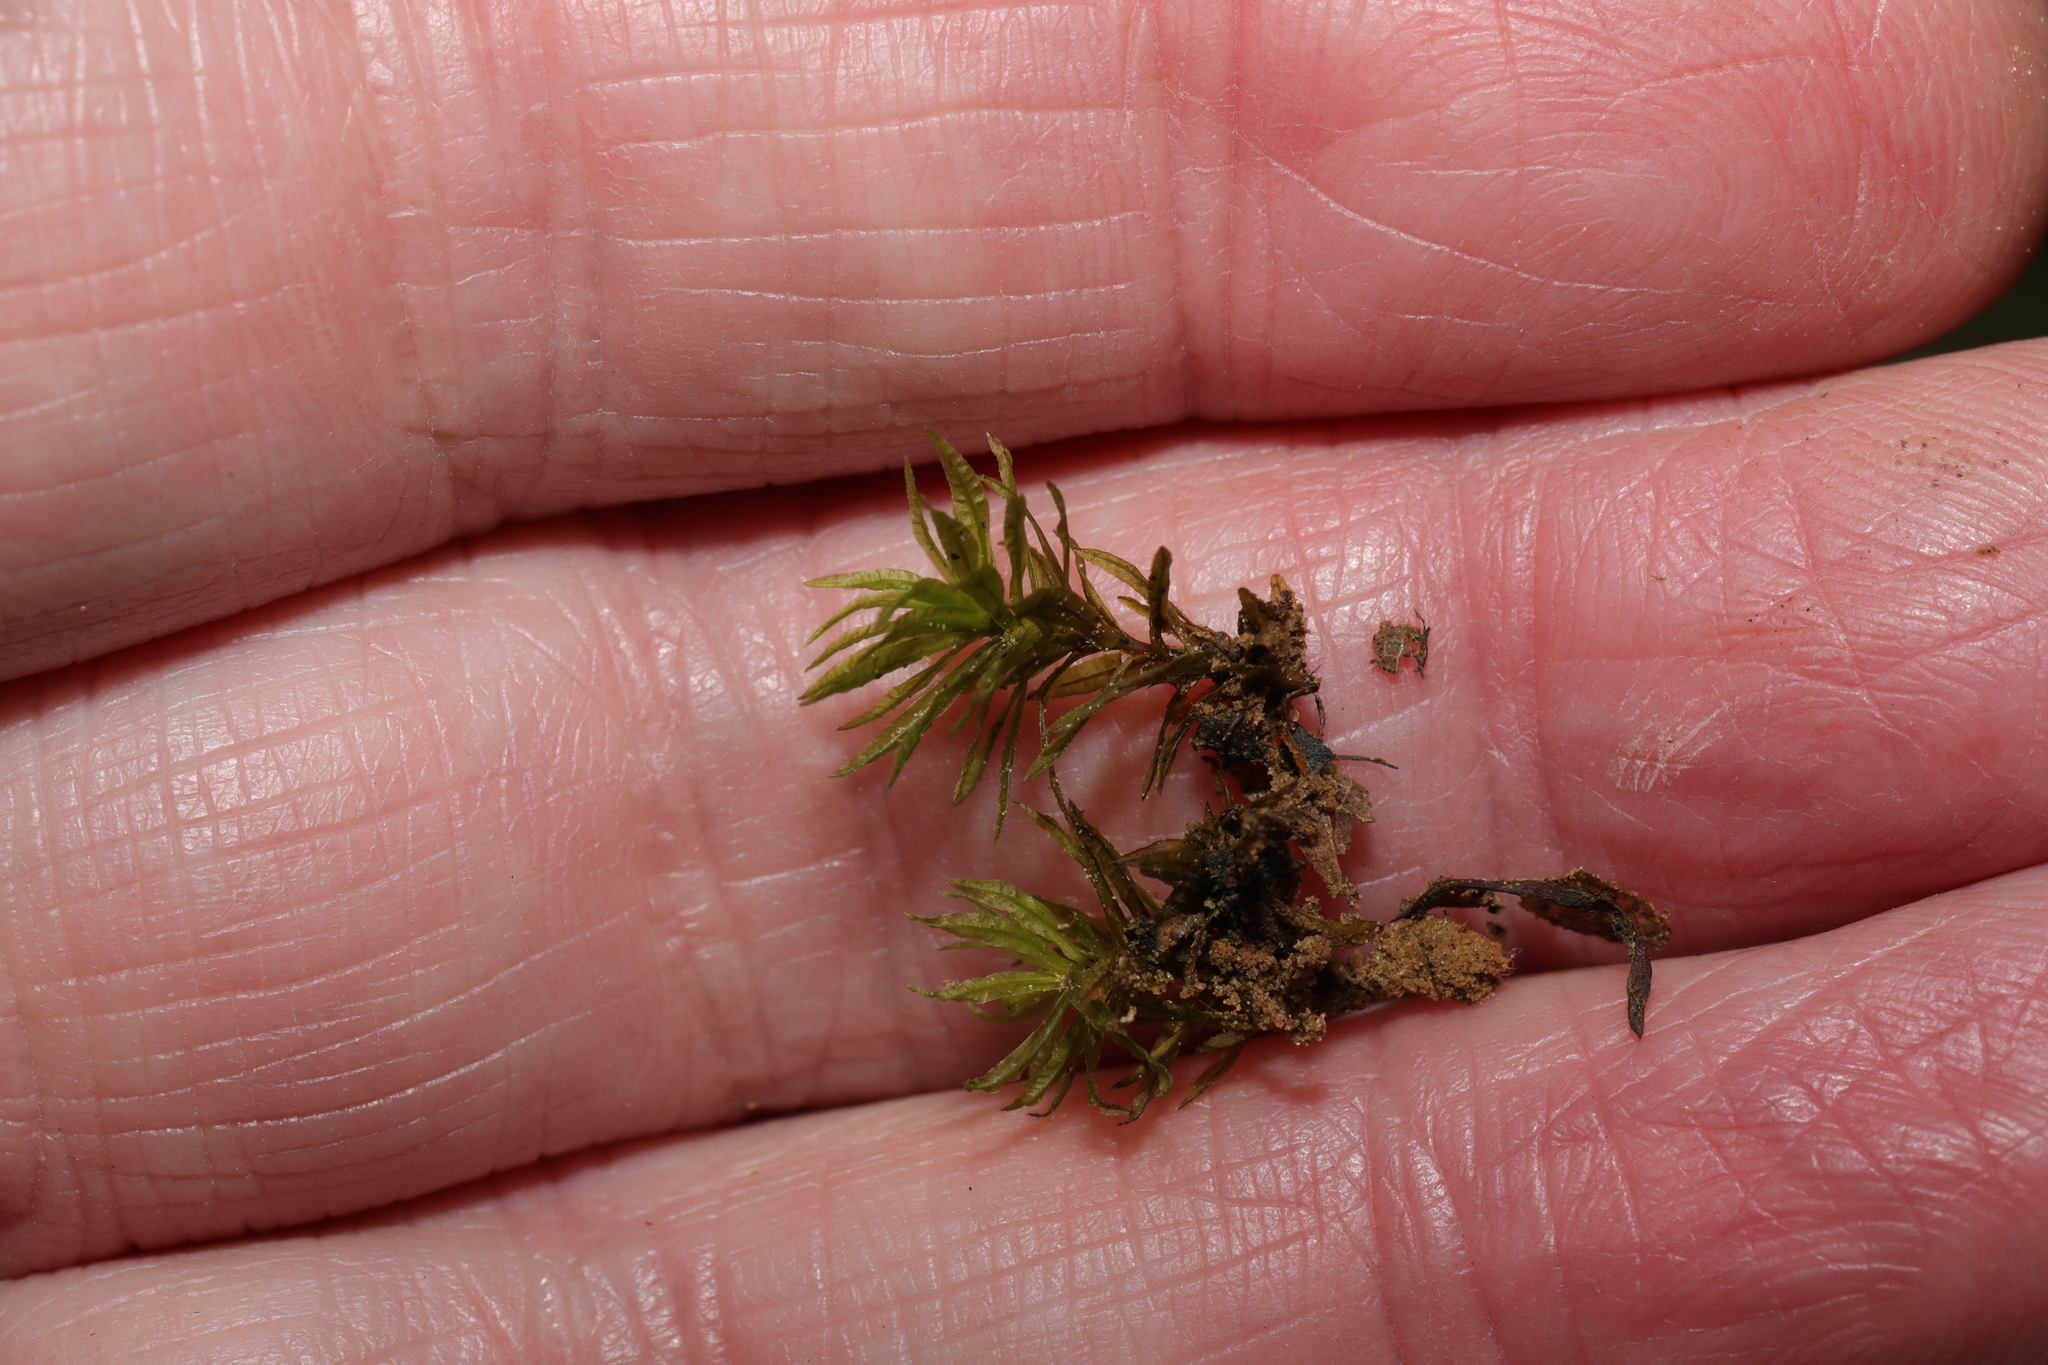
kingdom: Plantae
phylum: Bryophyta
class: Polytrichopsida
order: Polytrichales
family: Polytrichaceae
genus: Atrichum
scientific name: Atrichum undulatum
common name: Common smoothcap
